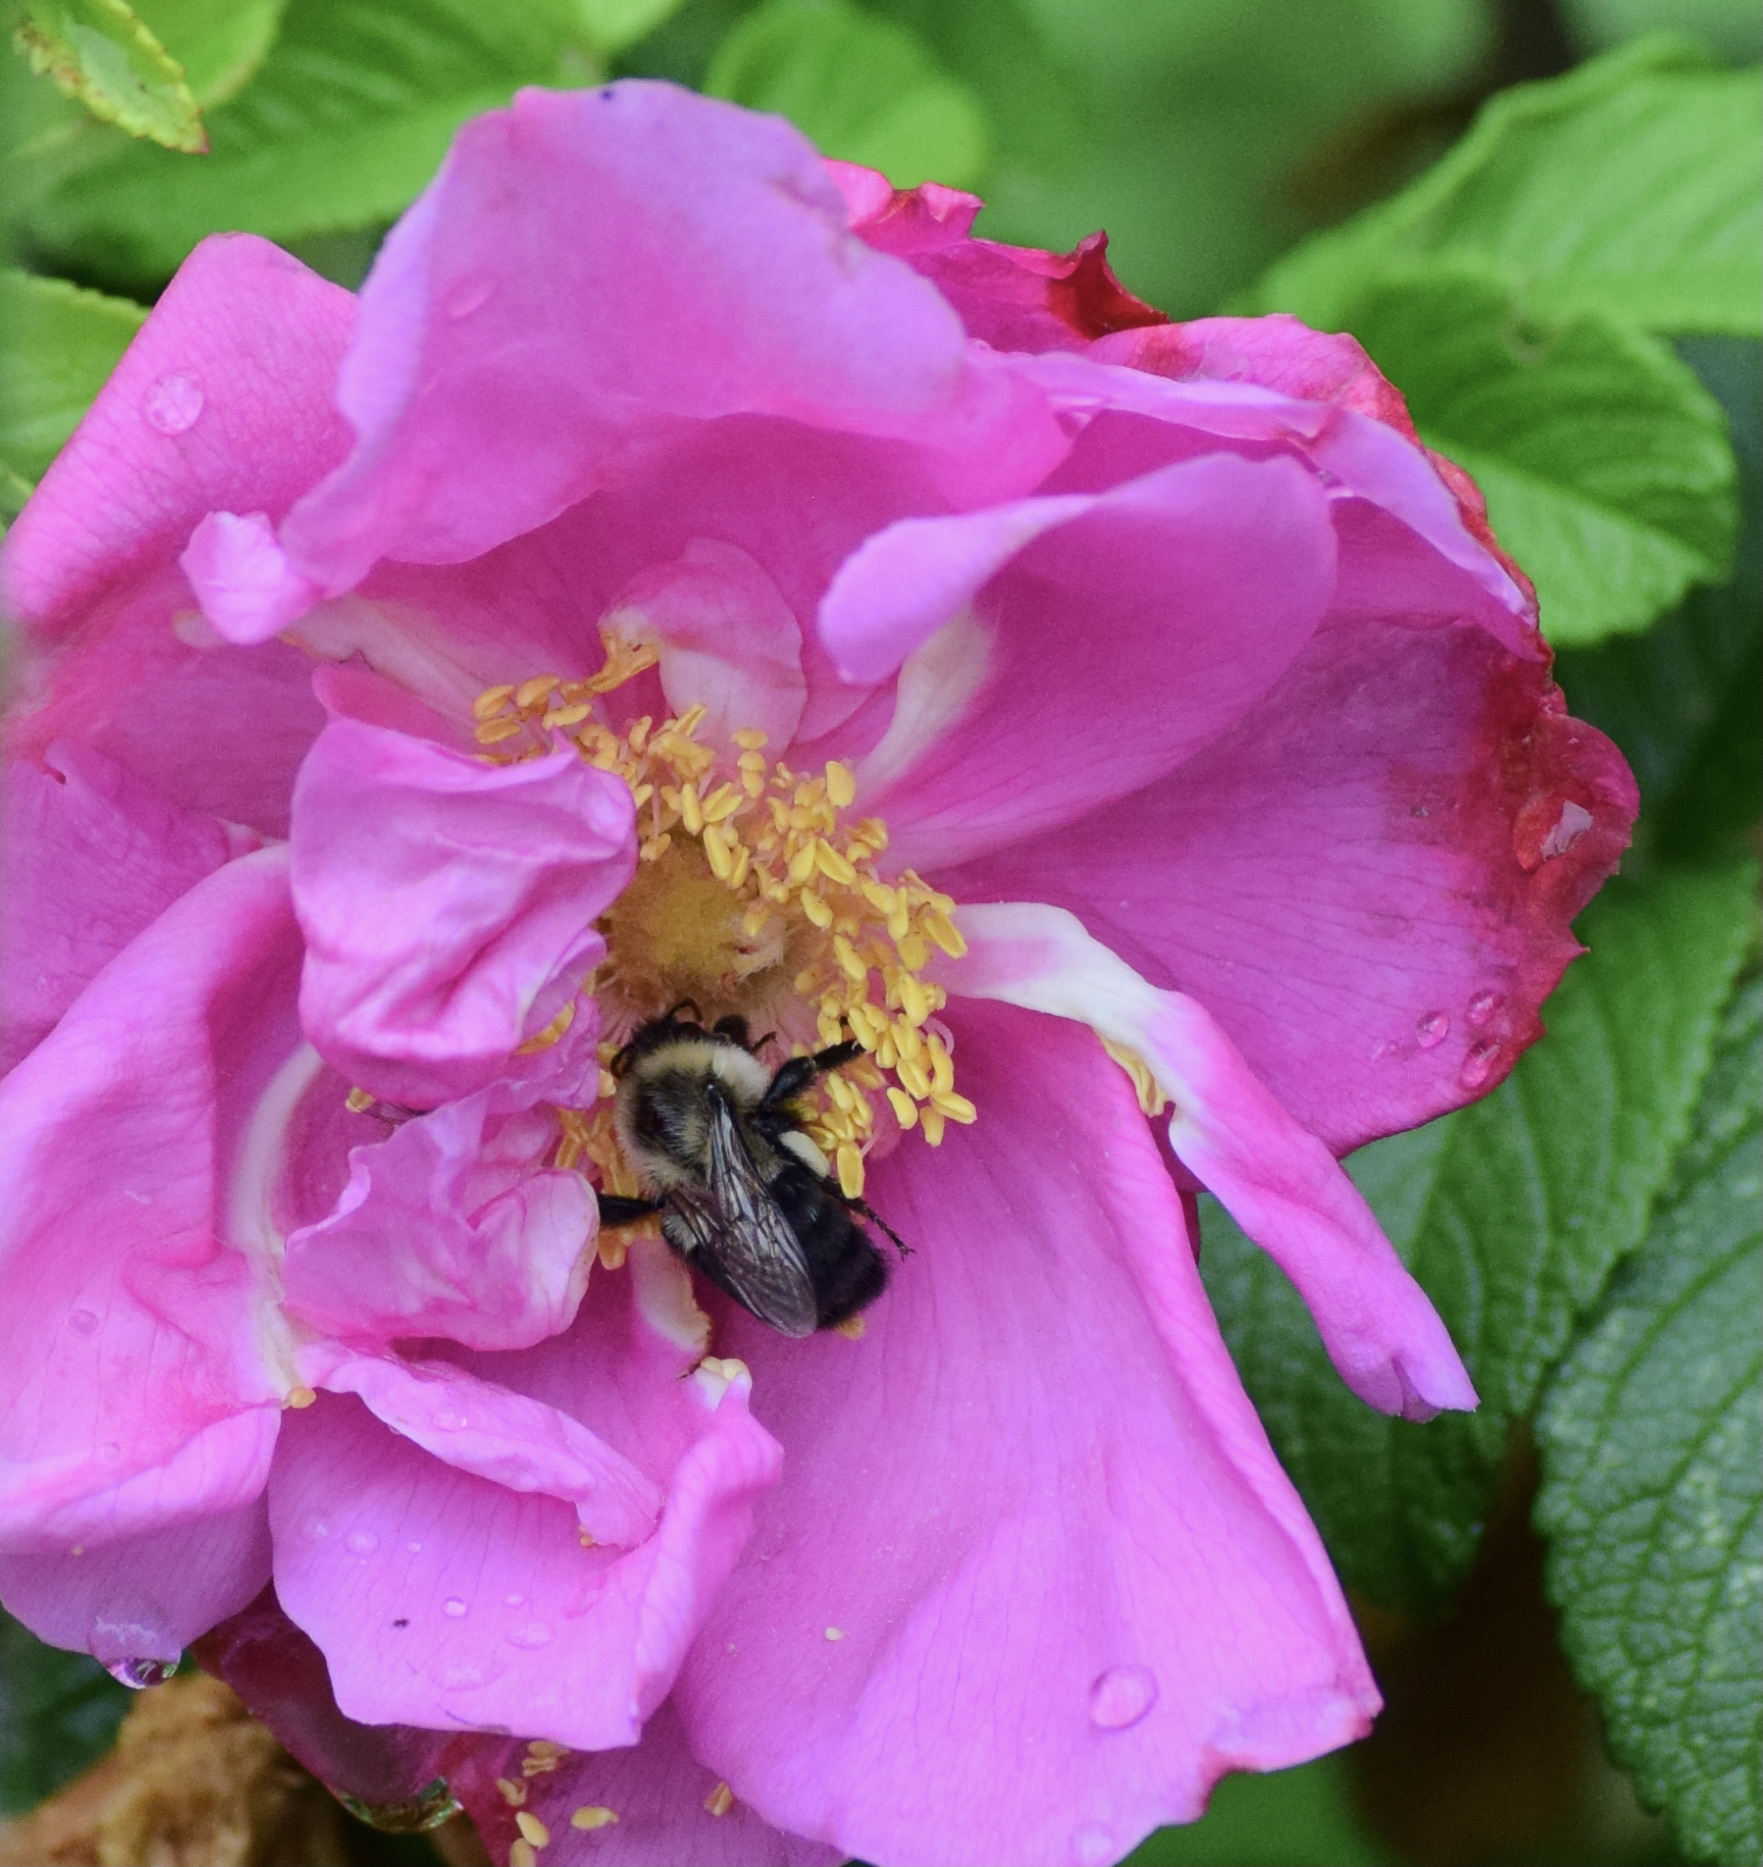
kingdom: Animalia
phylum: Arthropoda
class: Insecta
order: Hymenoptera
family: Apidae
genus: Bombus
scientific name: Bombus impatiens
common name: Common eastern bumble bee
